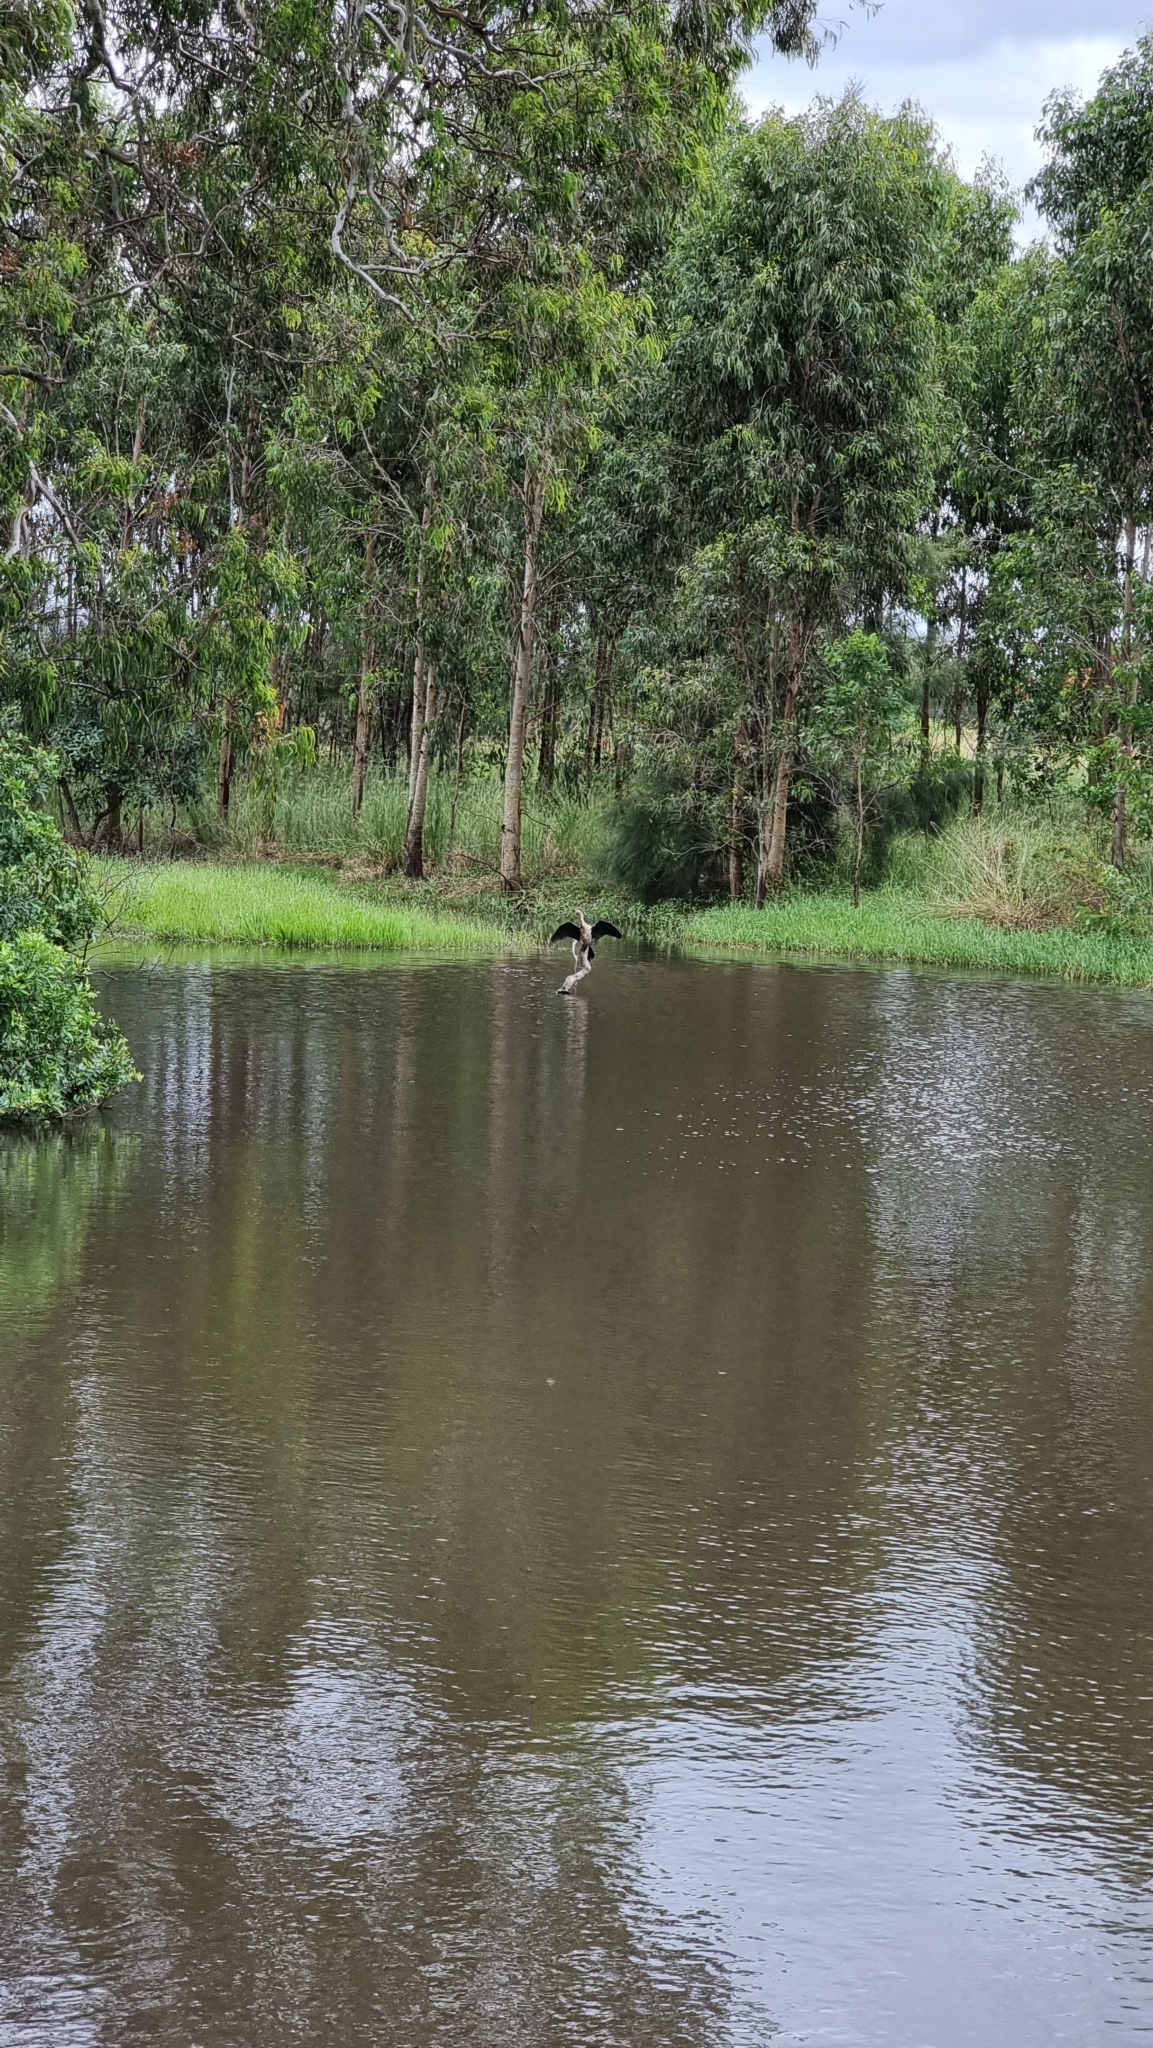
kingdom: Animalia
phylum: Chordata
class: Aves
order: Suliformes
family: Phalacrocoracidae
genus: Microcarbo
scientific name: Microcarbo melanoleucos
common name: Little pied cormorant
